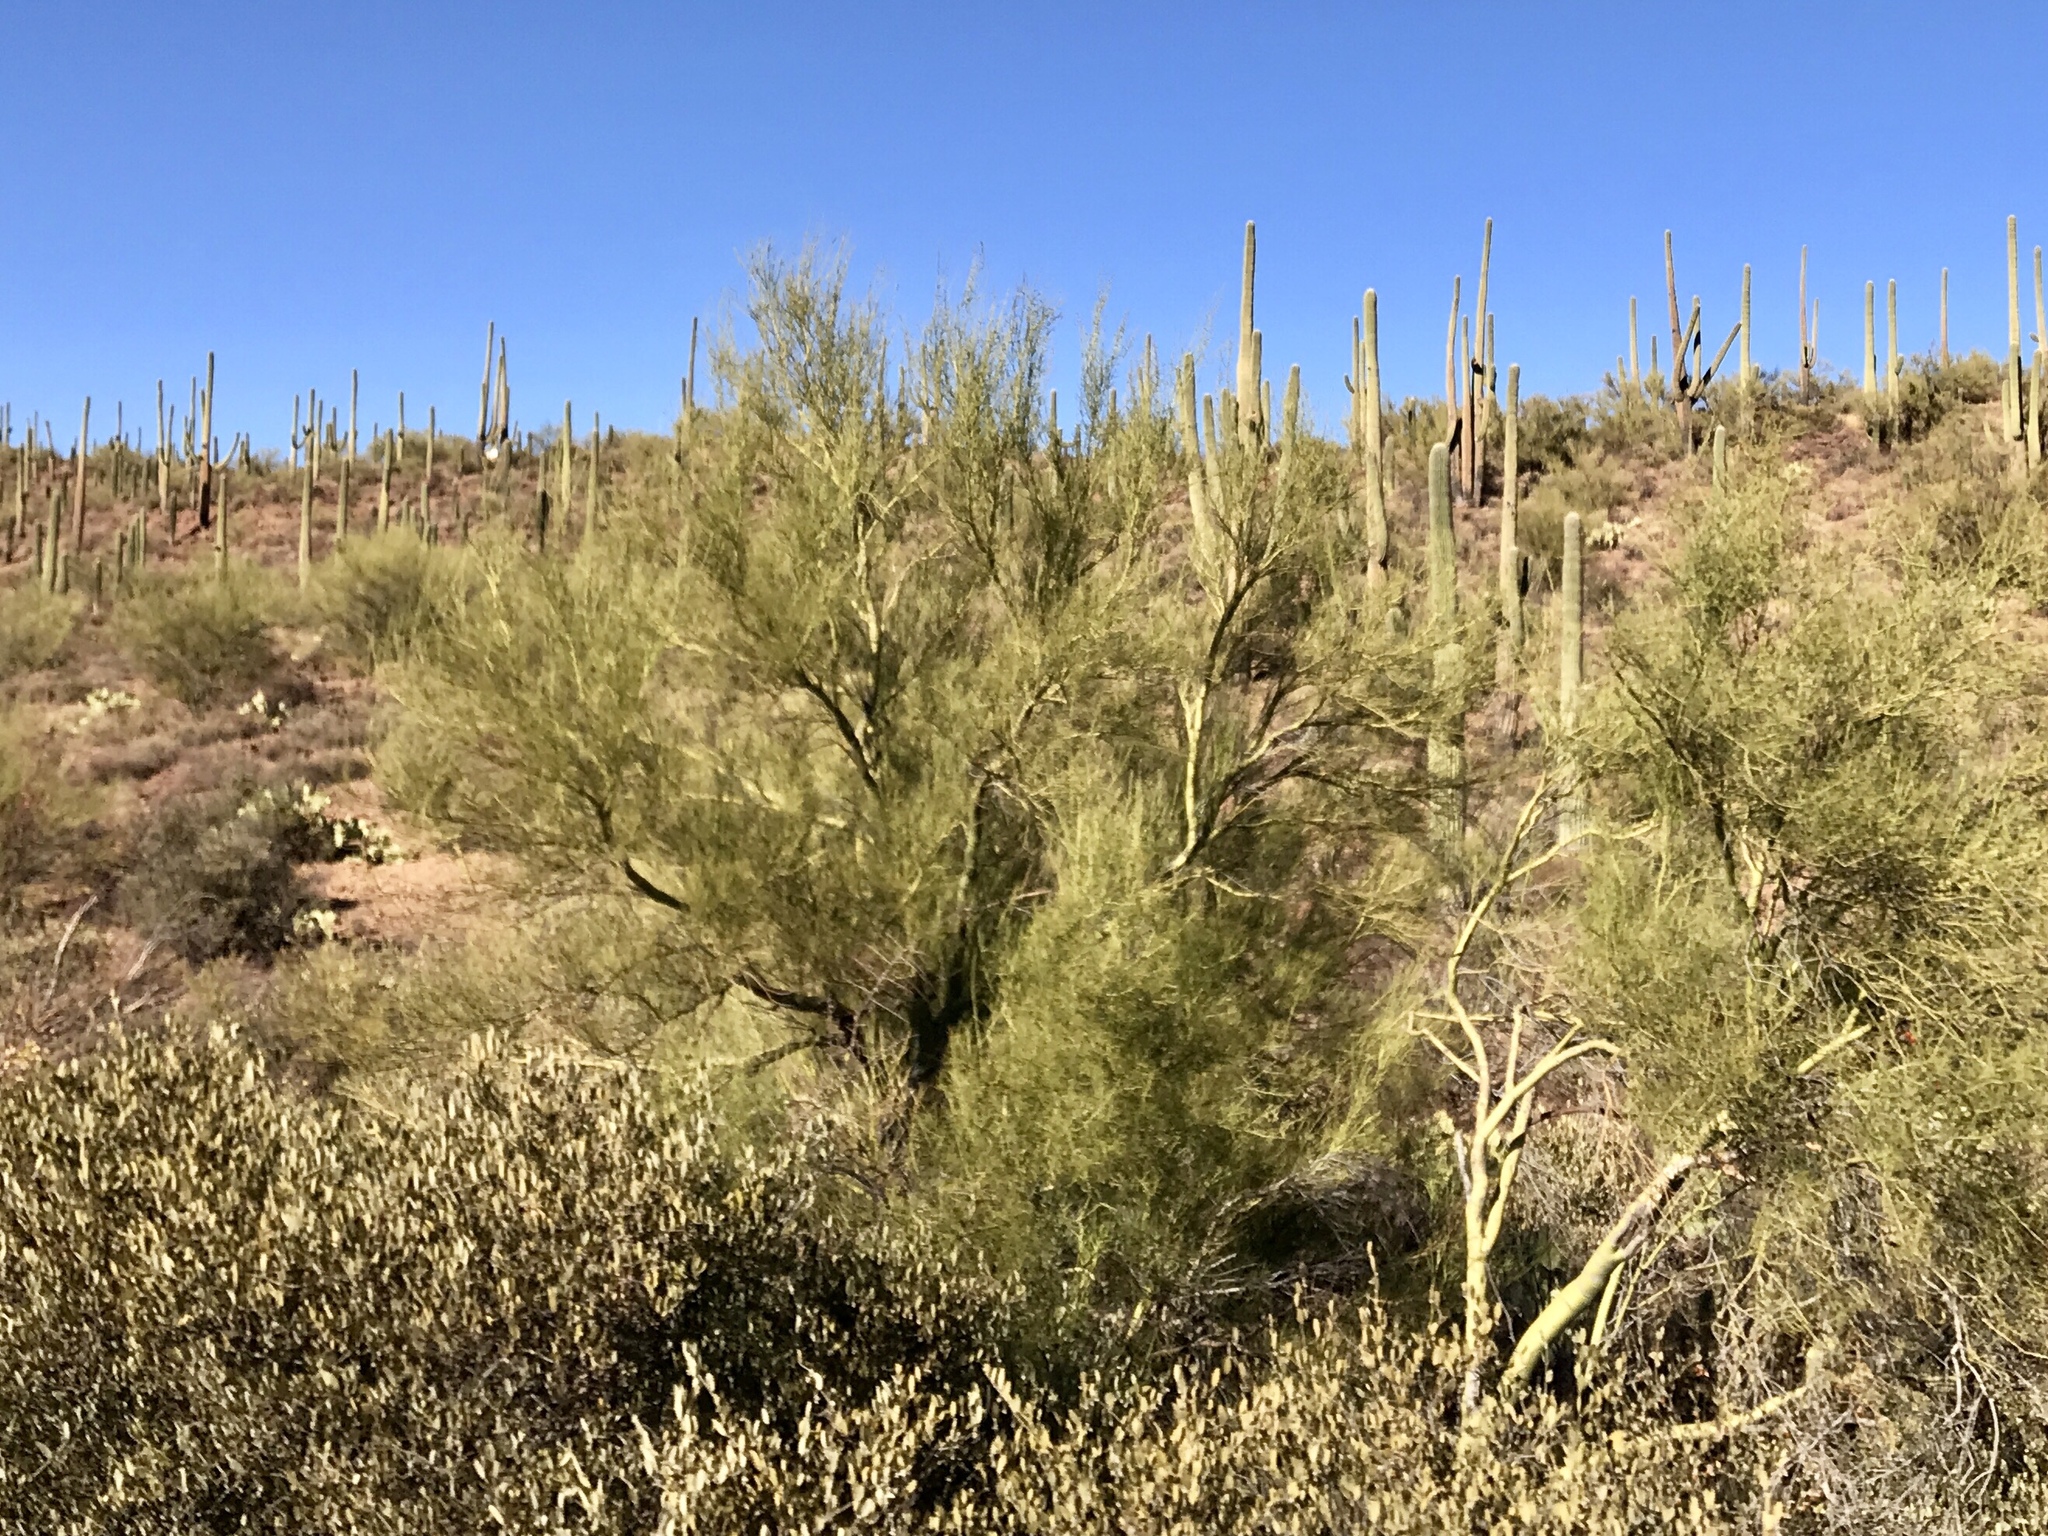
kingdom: Plantae
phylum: Tracheophyta
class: Magnoliopsida
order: Fabales
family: Fabaceae
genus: Parkinsonia
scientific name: Parkinsonia microphylla
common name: Yellow paloverde
